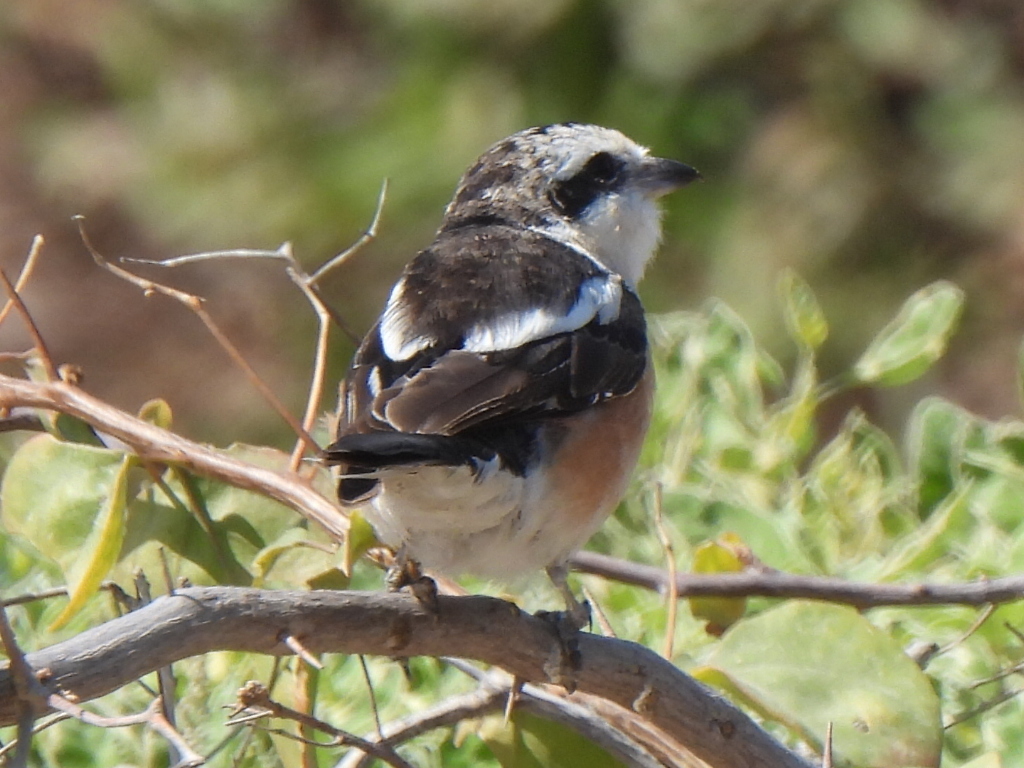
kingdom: Animalia
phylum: Chordata
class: Aves
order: Passeriformes
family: Laniidae
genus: Lanius
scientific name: Lanius nubicus
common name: Masked shrike
